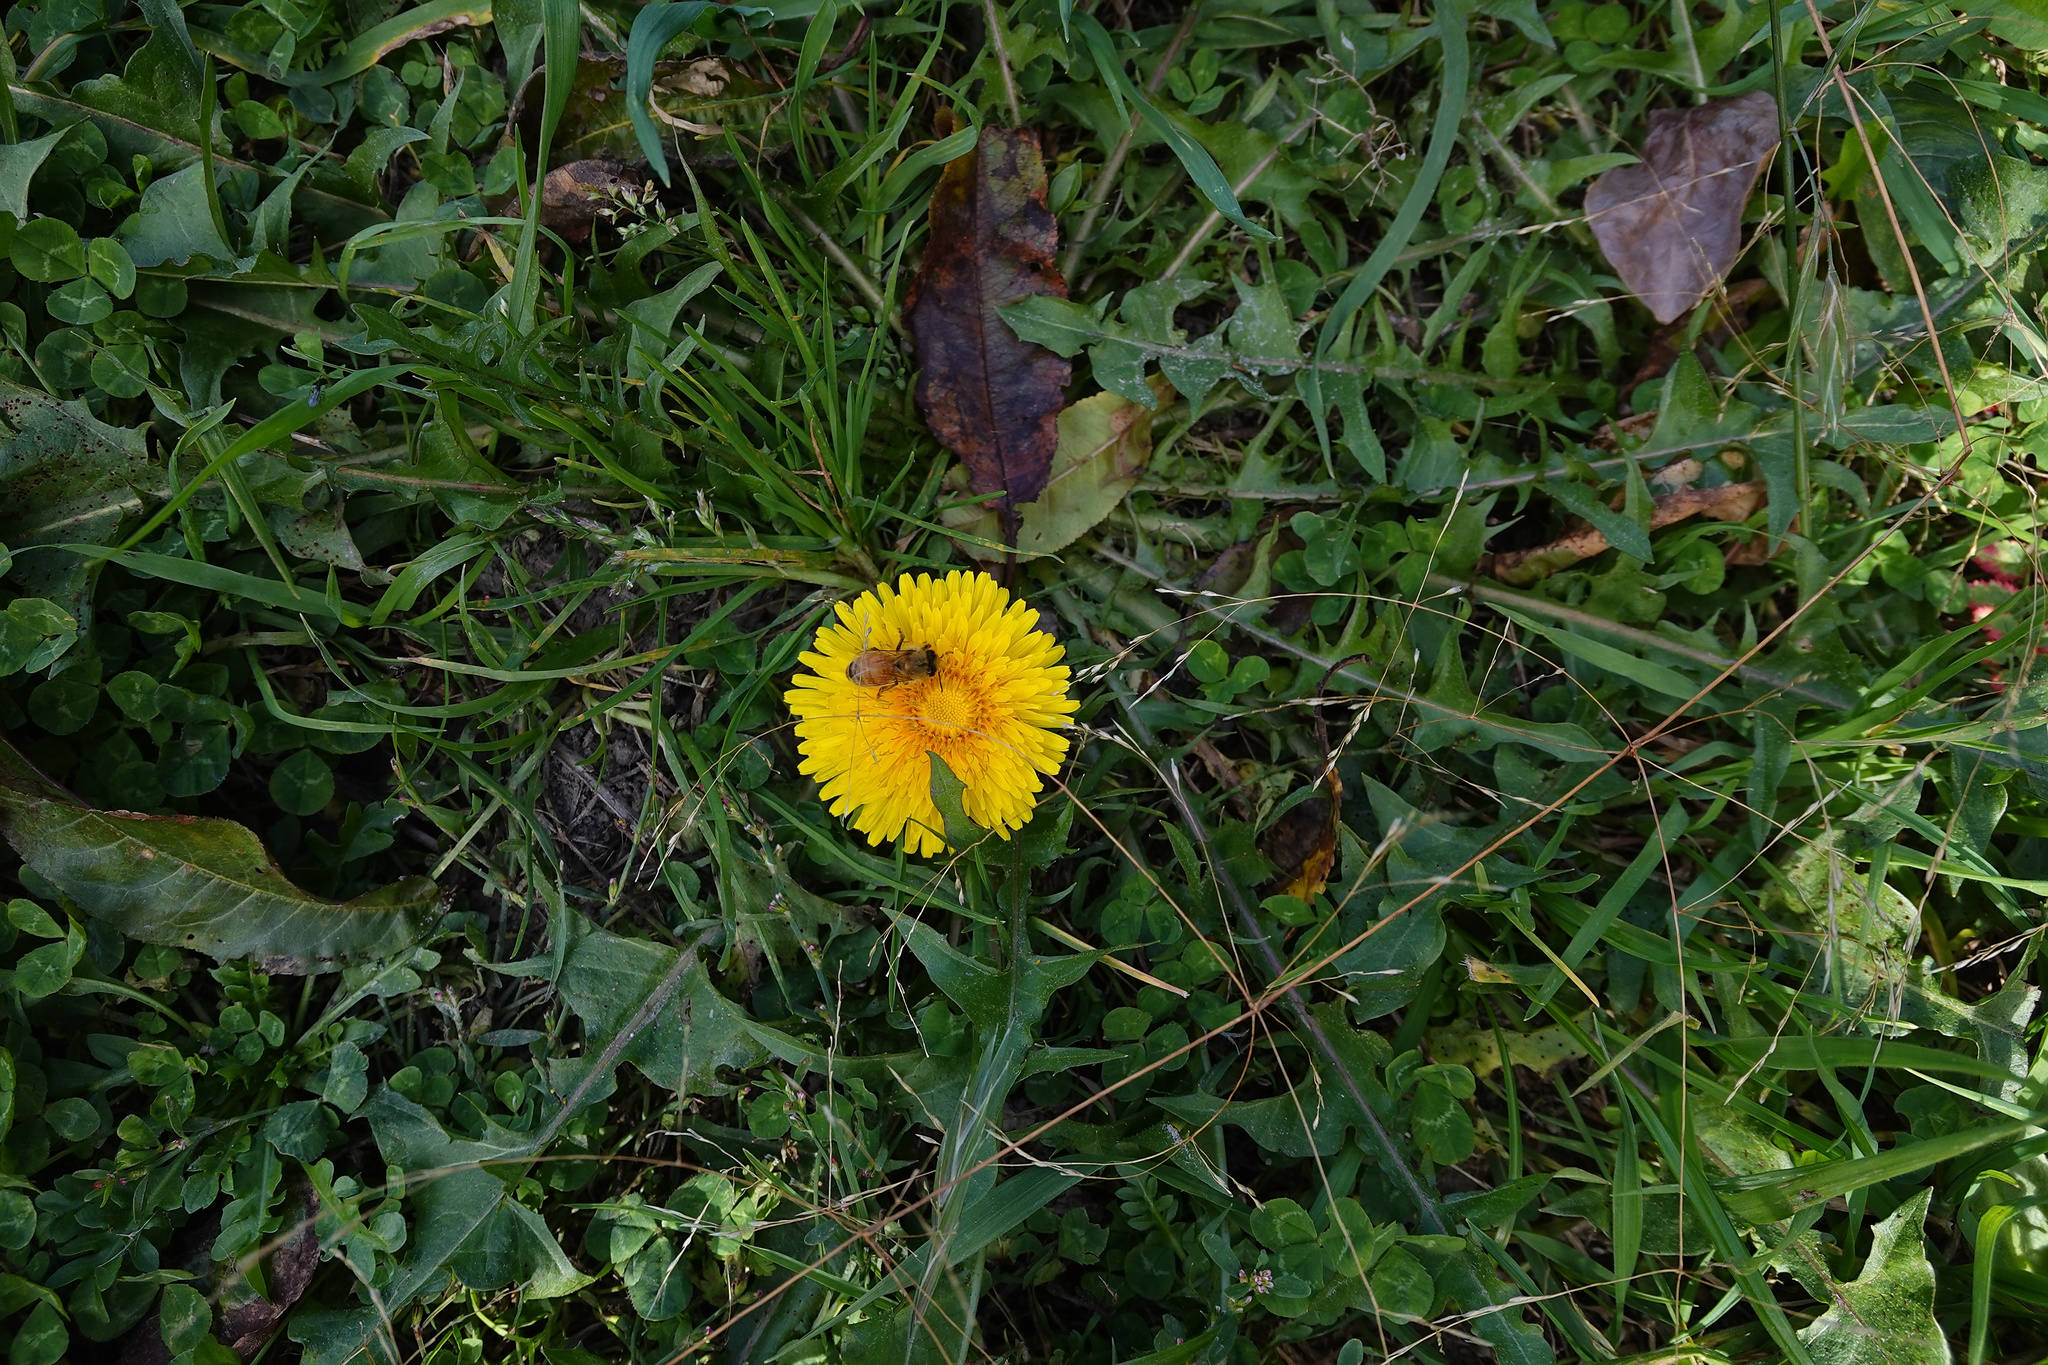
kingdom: Plantae
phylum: Tracheophyta
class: Magnoliopsida
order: Asterales
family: Asteraceae
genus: Taraxacum
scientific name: Taraxacum officinale
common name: Common dandelion
